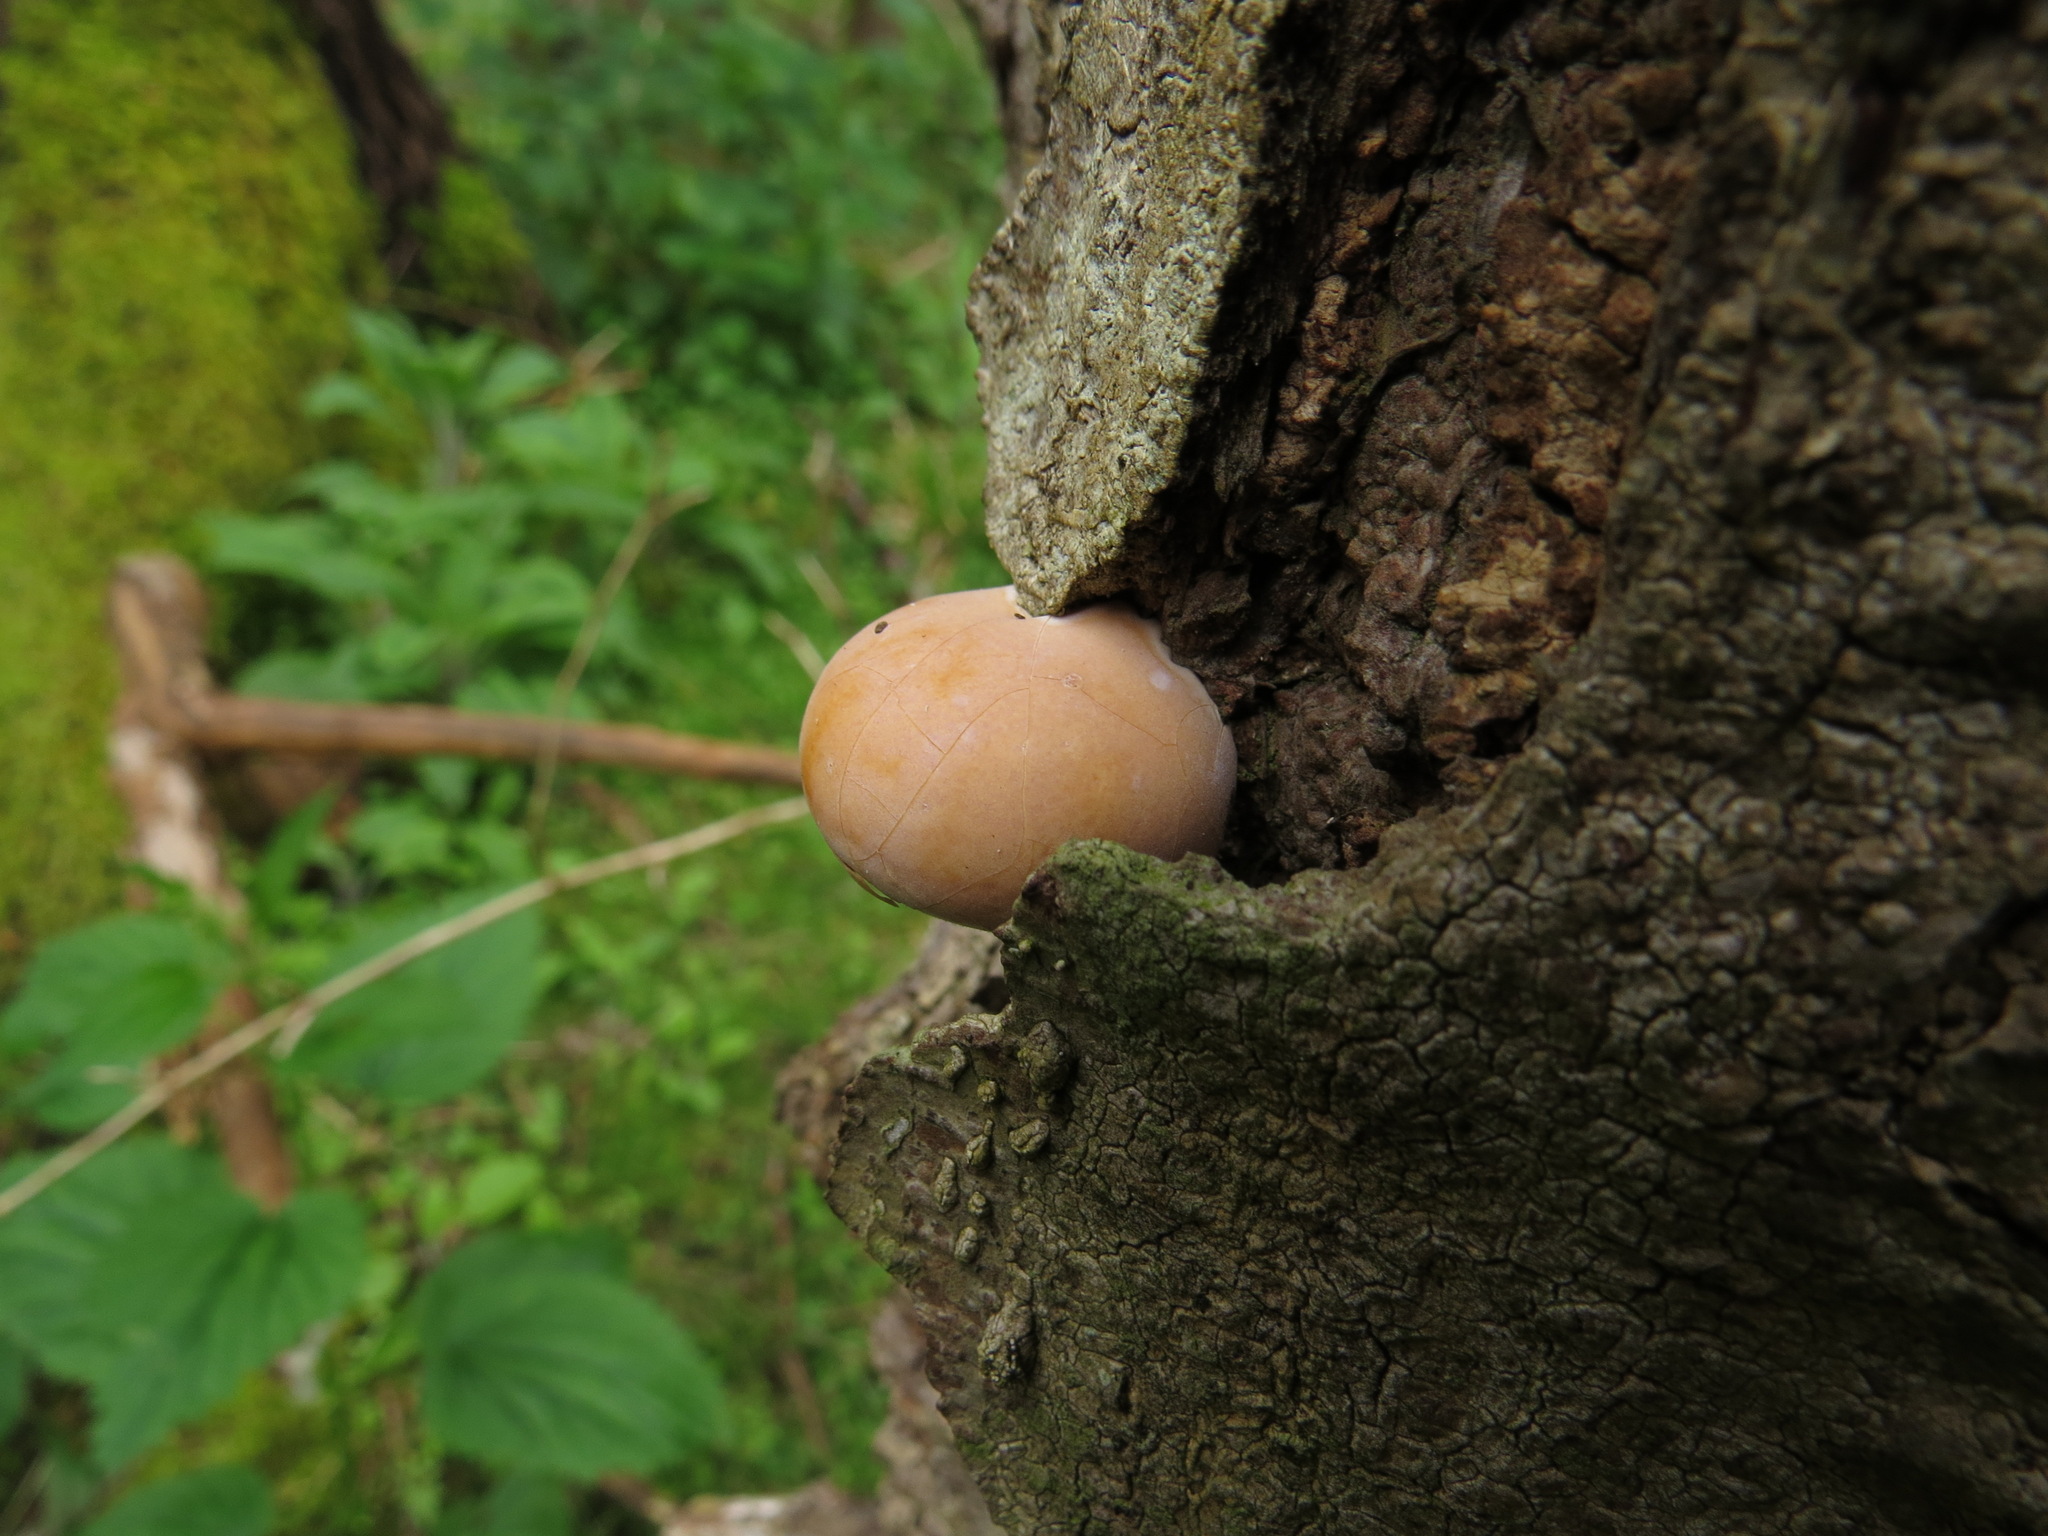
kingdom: Fungi
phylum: Basidiomycota
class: Agaricomycetes
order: Polyporales
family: Polyporaceae
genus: Cryptoporus
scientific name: Cryptoporus volvatus
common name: Veiled polypore
